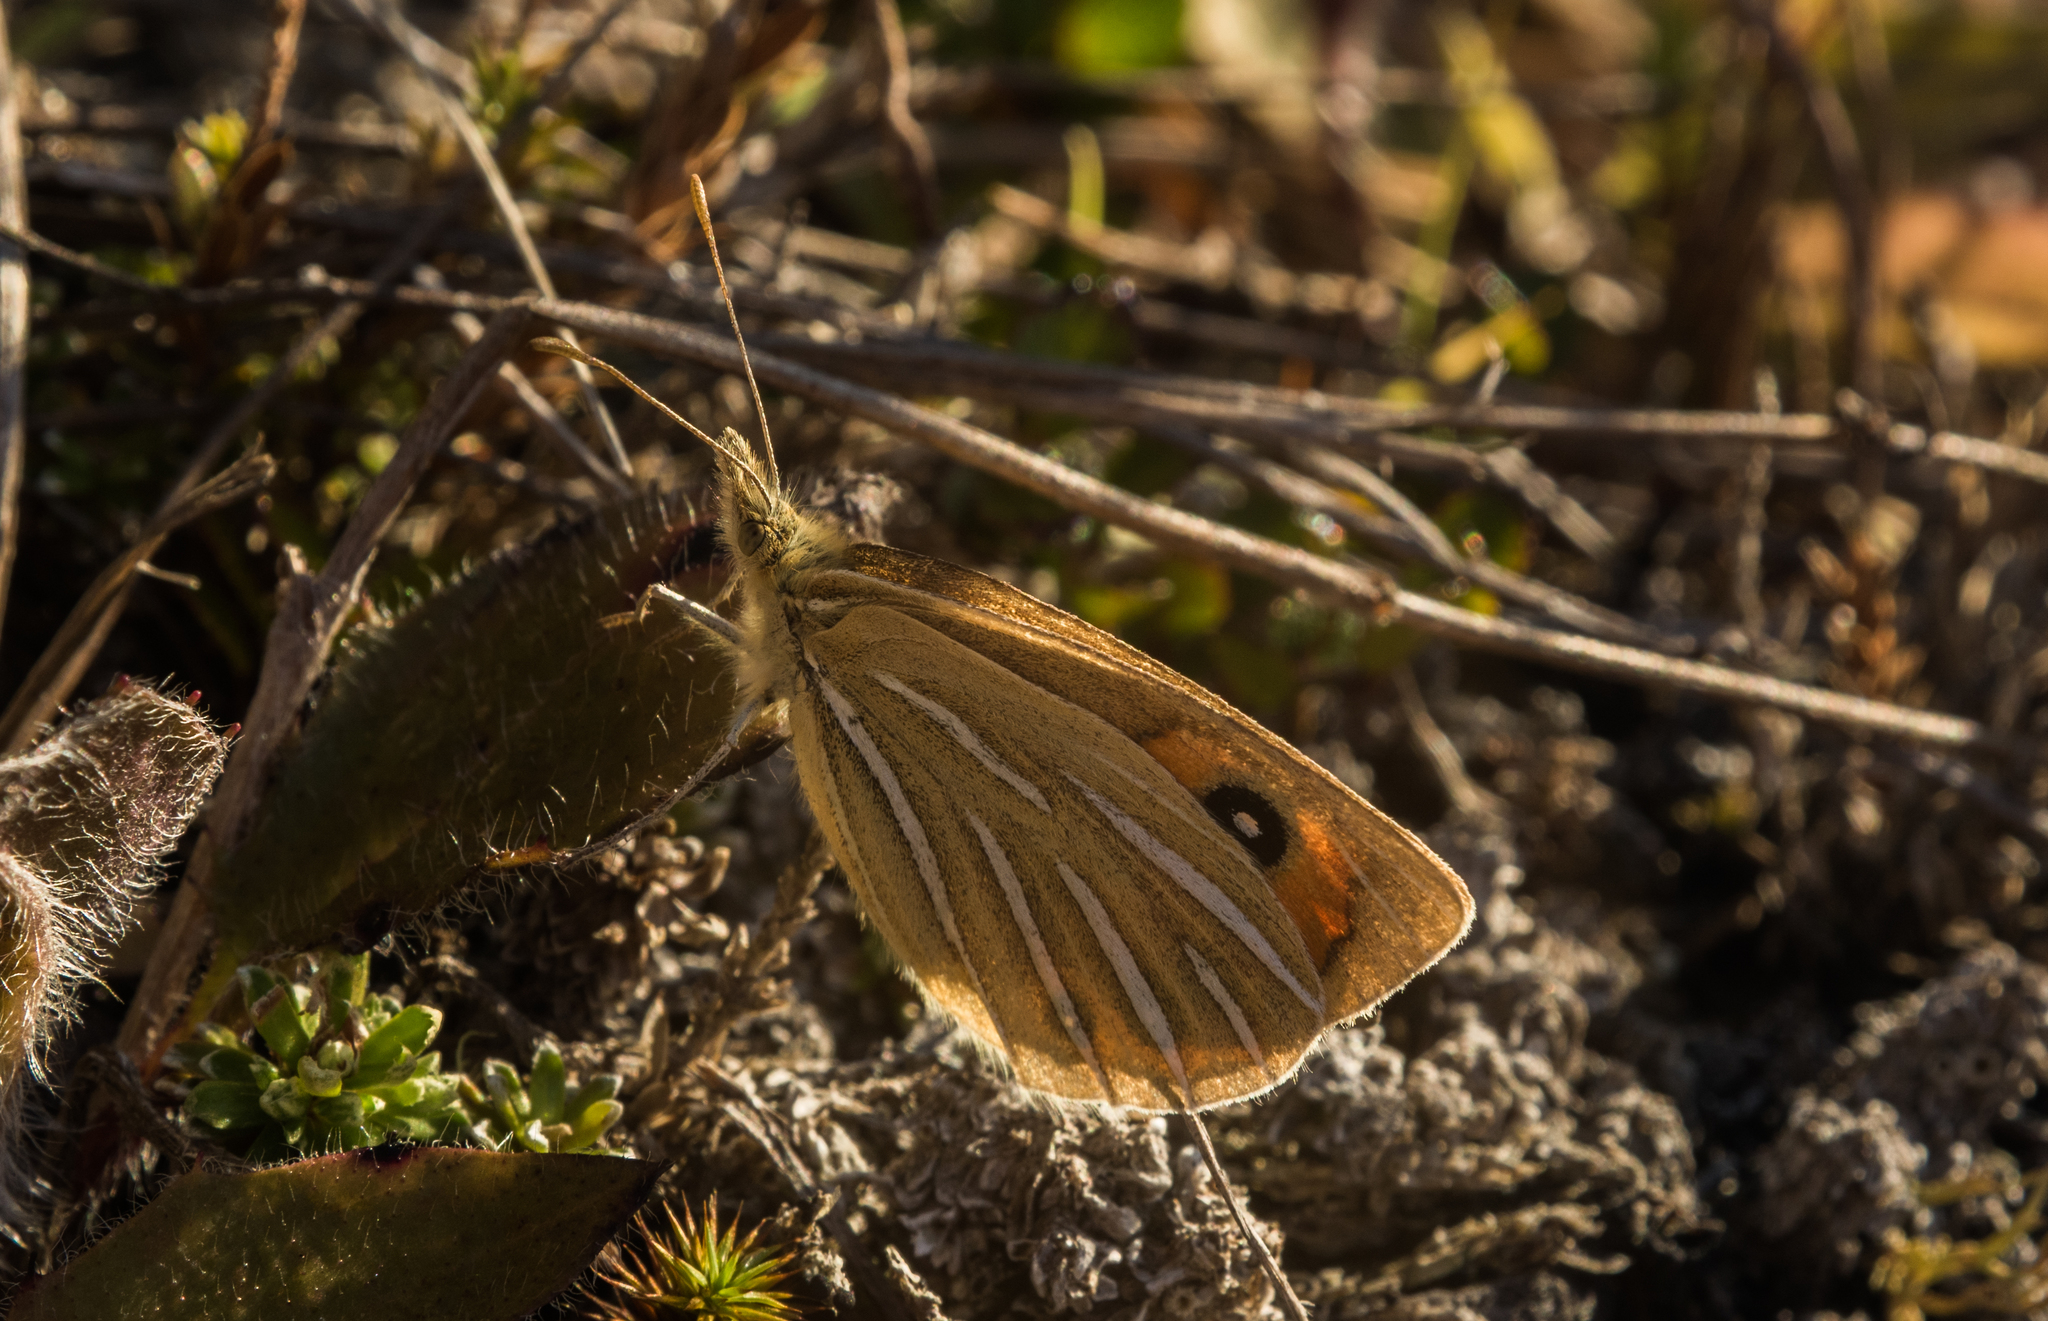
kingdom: Animalia
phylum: Arthropoda
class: Insecta
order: Lepidoptera
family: Nymphalidae
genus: Argyrophenga
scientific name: Argyrophenga antipodum
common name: Common tussock butterfly
